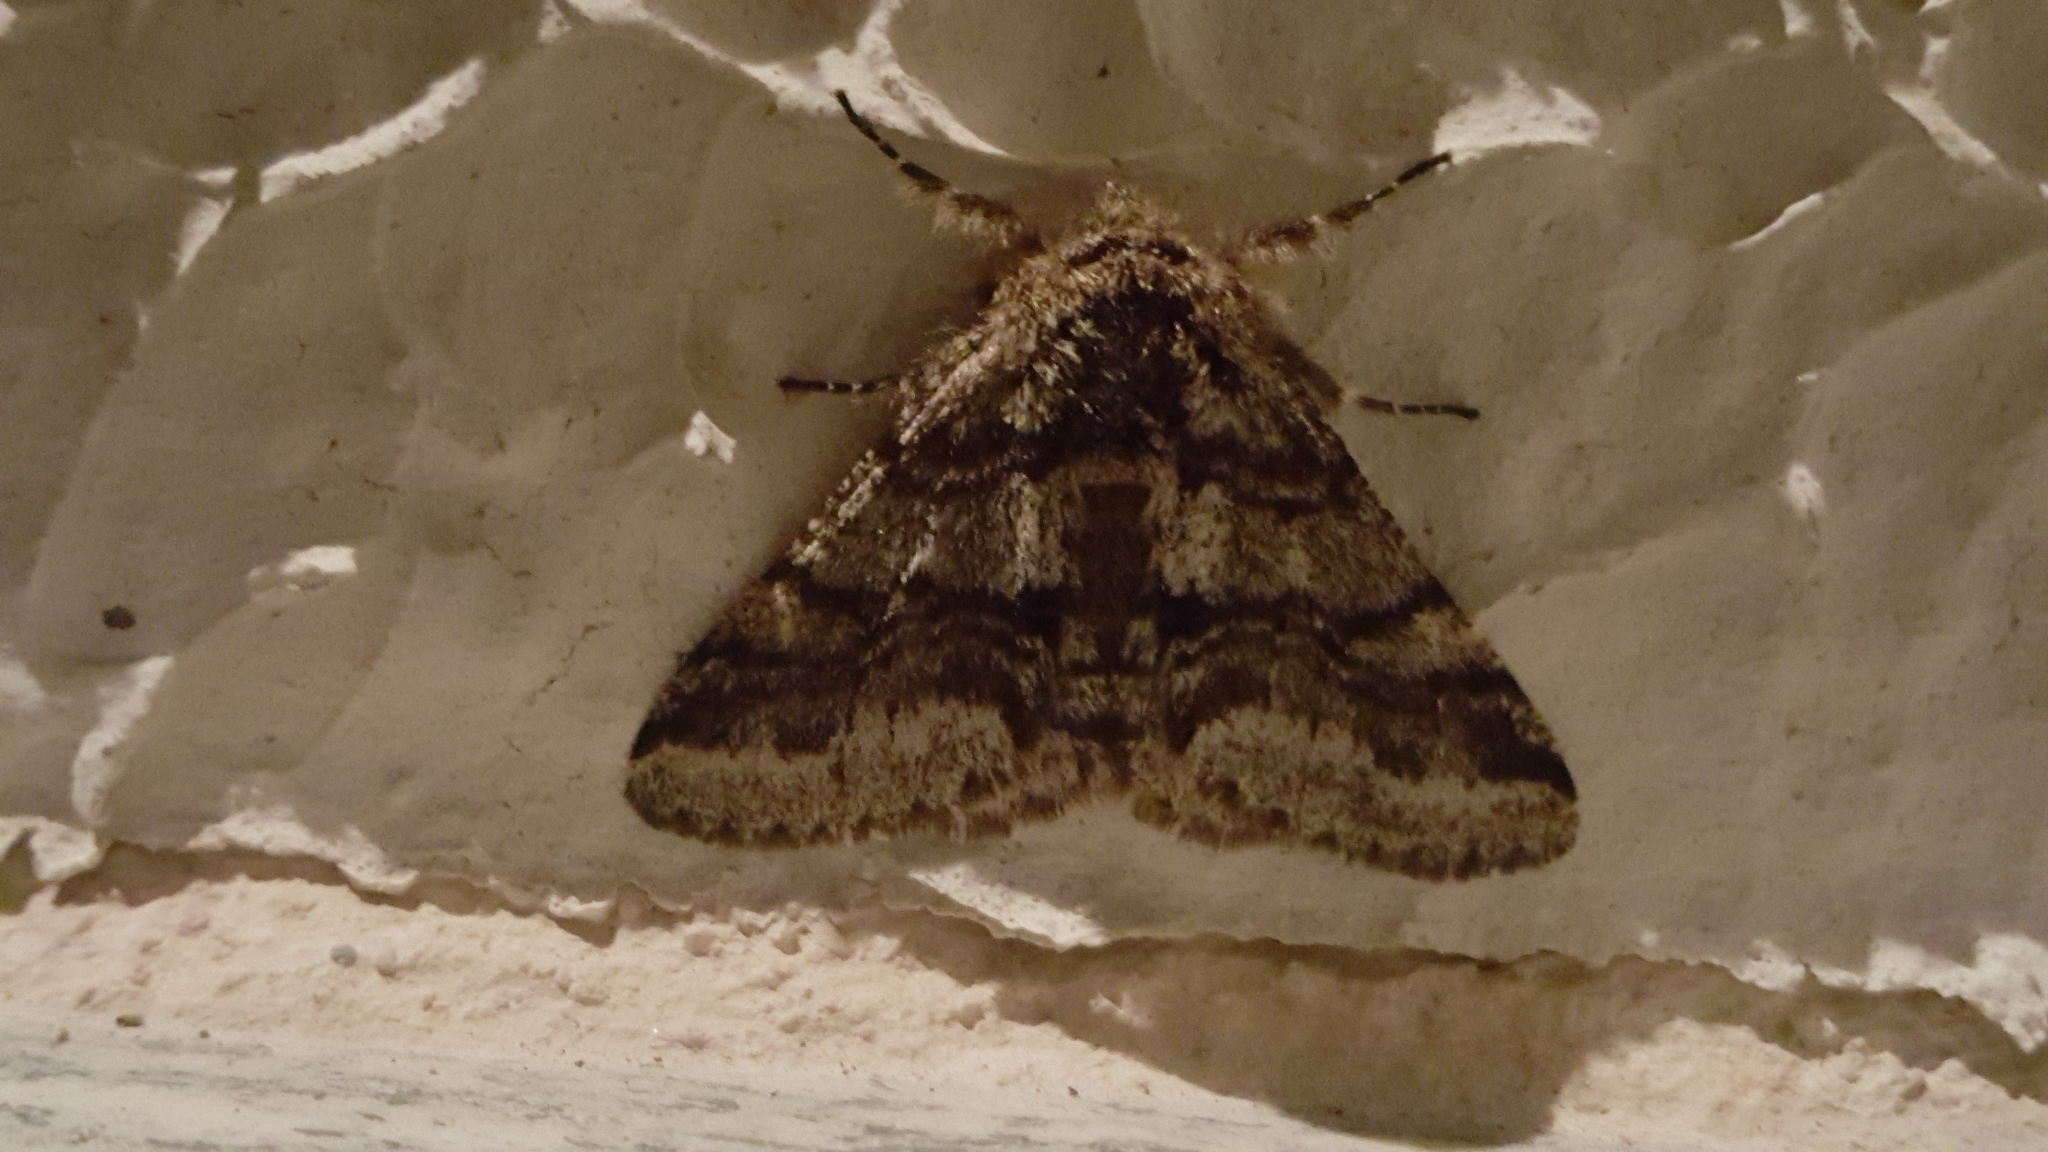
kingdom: Animalia
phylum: Arthropoda
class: Insecta
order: Lepidoptera
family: Geometridae
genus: Lycia
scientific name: Lycia hirtaria
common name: Brindled beauty
